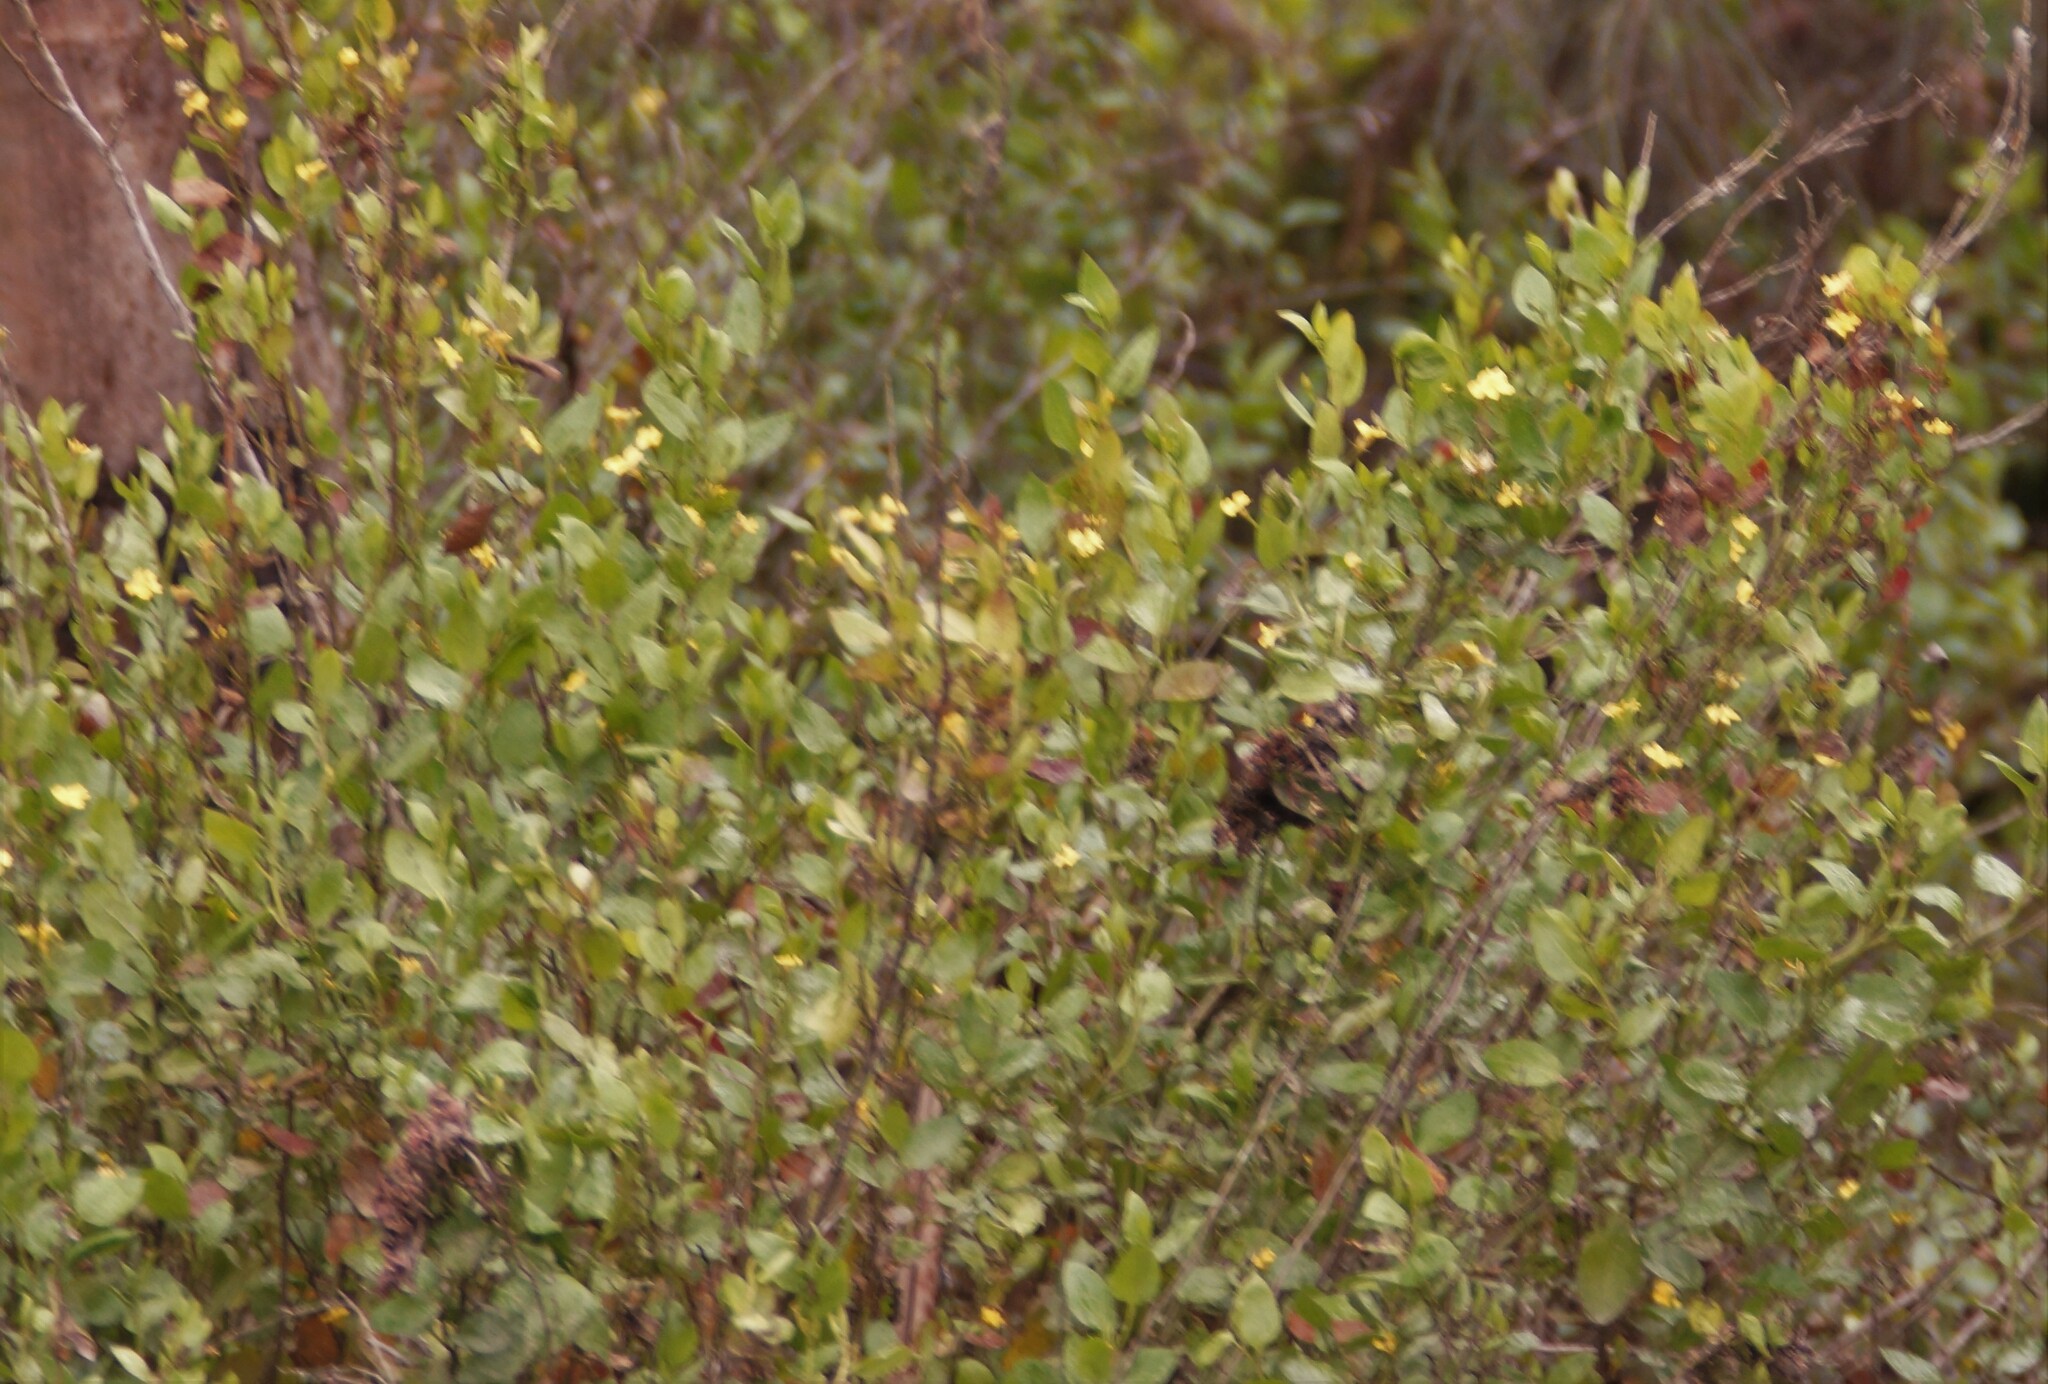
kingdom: Plantae
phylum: Tracheophyta
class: Magnoliopsida
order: Asterales
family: Goodeniaceae
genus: Goodenia
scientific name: Goodenia ovata
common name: Hop goodenia
